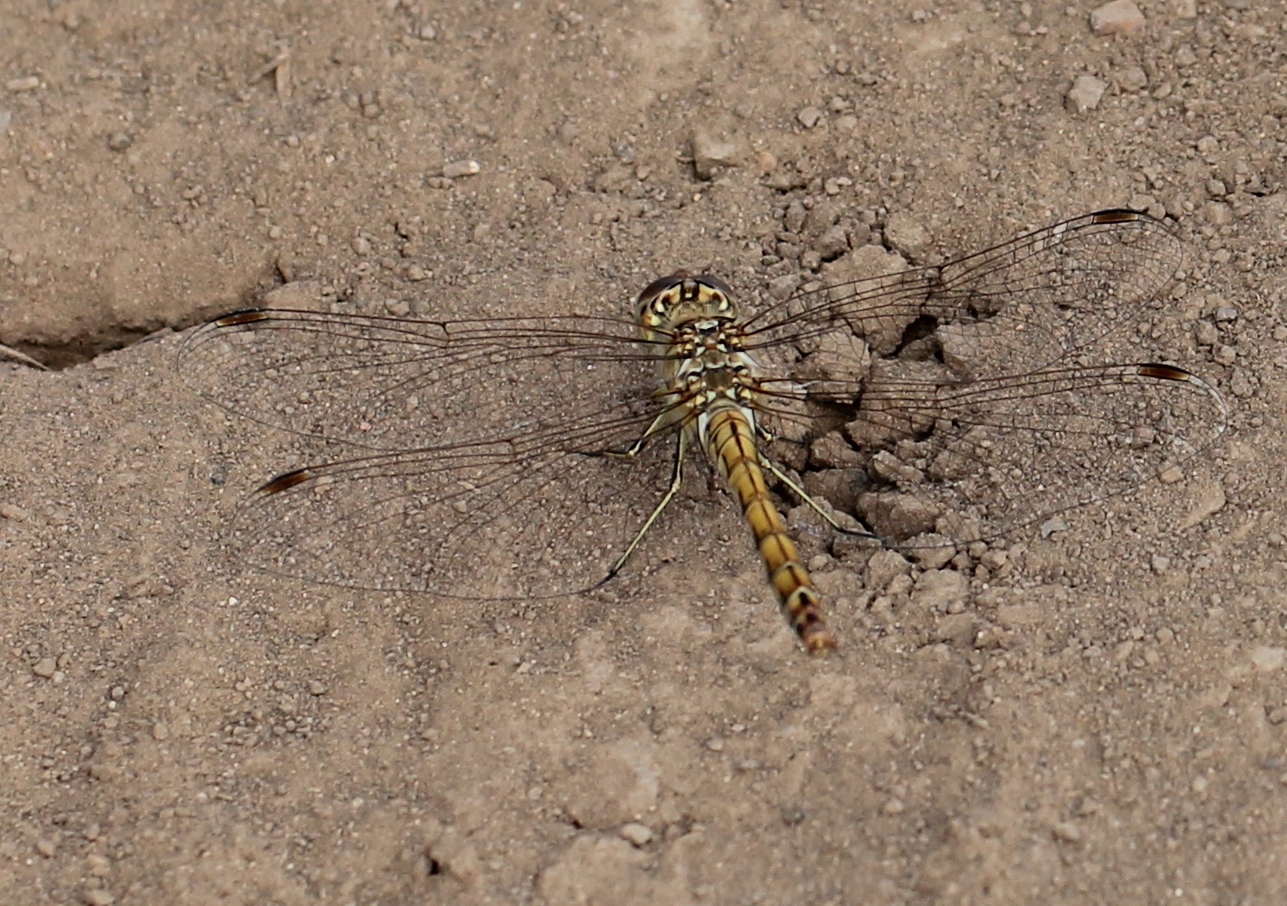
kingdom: Animalia
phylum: Arthropoda
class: Insecta
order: Odonata
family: Libellulidae
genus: Sympetrum
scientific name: Sympetrum vulgatum
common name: Vagrant darter
